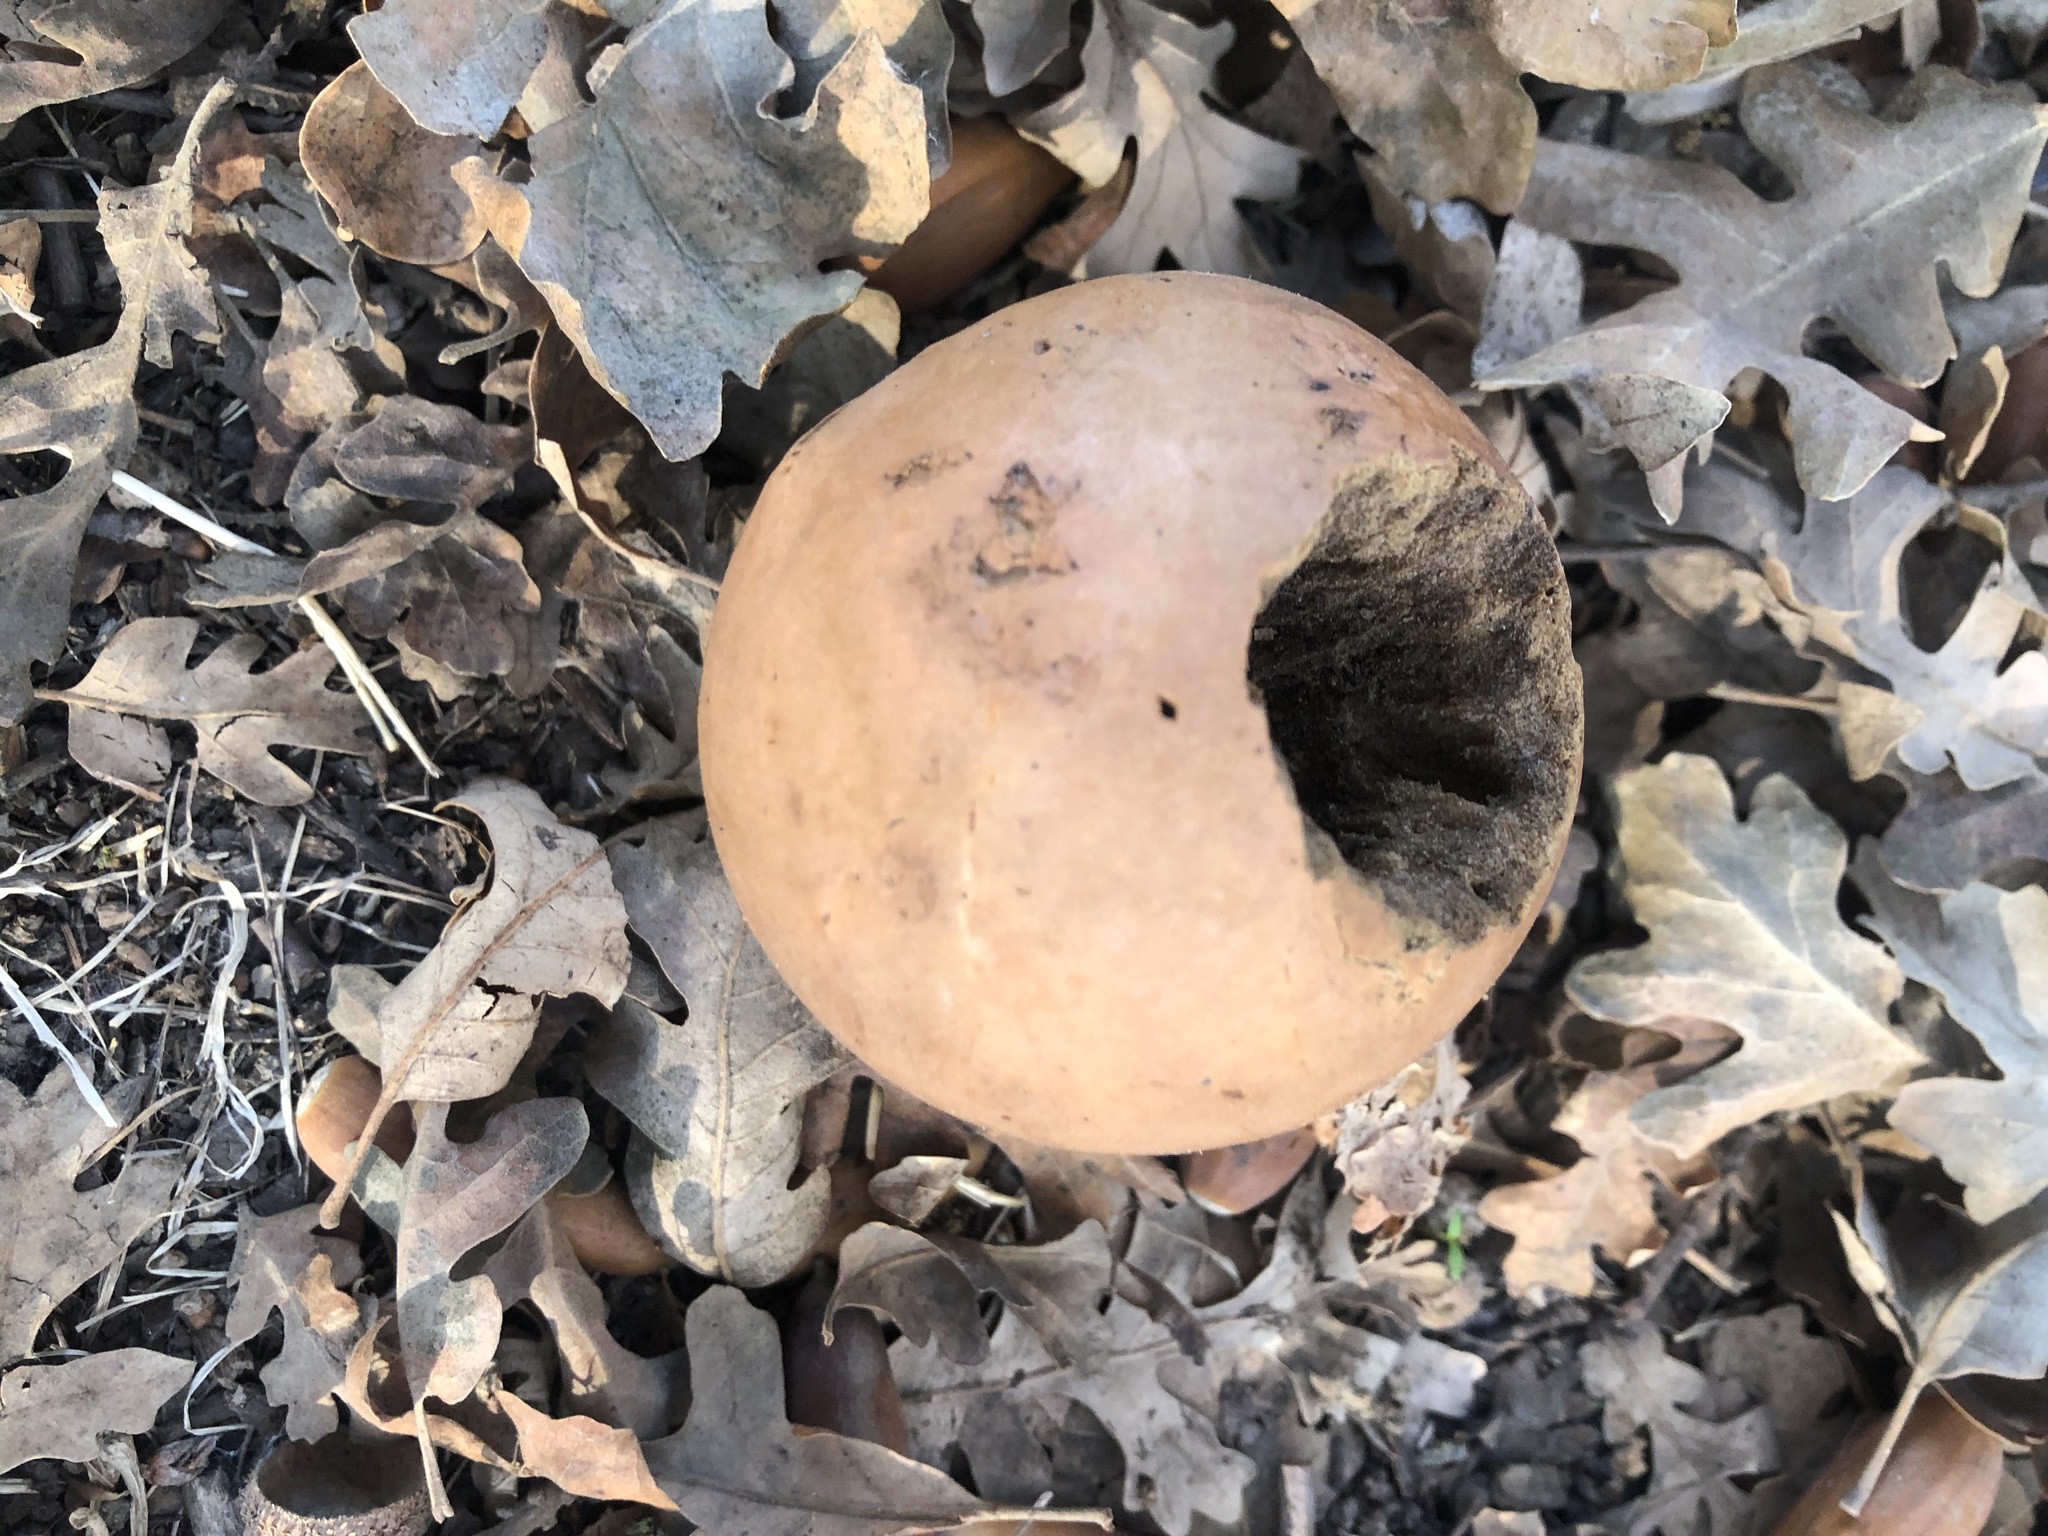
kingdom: Animalia
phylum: Arthropoda
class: Insecta
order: Hymenoptera
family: Cynipidae
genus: Andricus
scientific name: Andricus quercuscalifornicus
